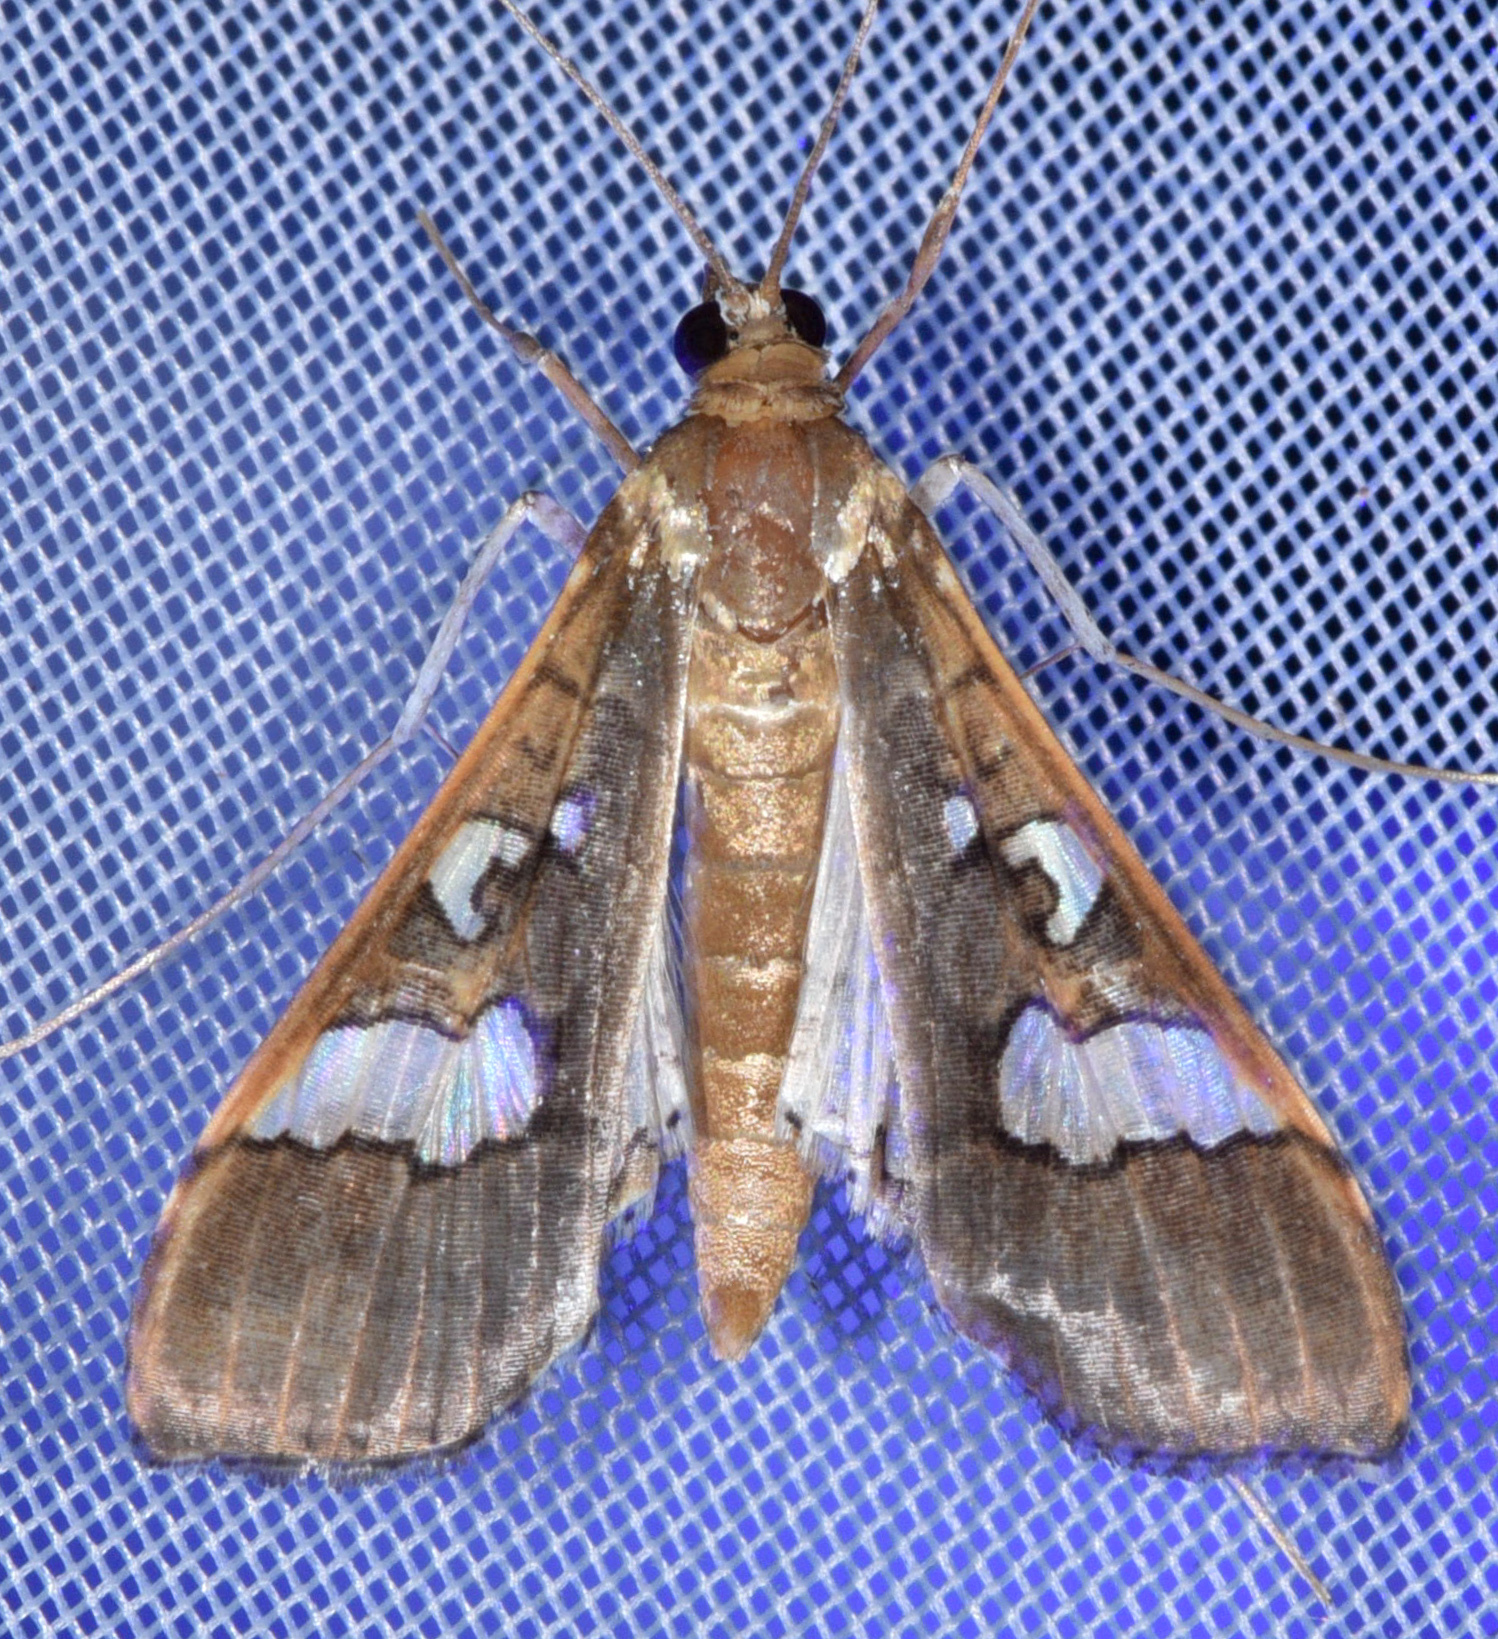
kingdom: Animalia
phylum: Arthropoda
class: Insecta
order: Lepidoptera
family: Crambidae
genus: Maruca
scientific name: Maruca vitrata
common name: Maruca pod borer
